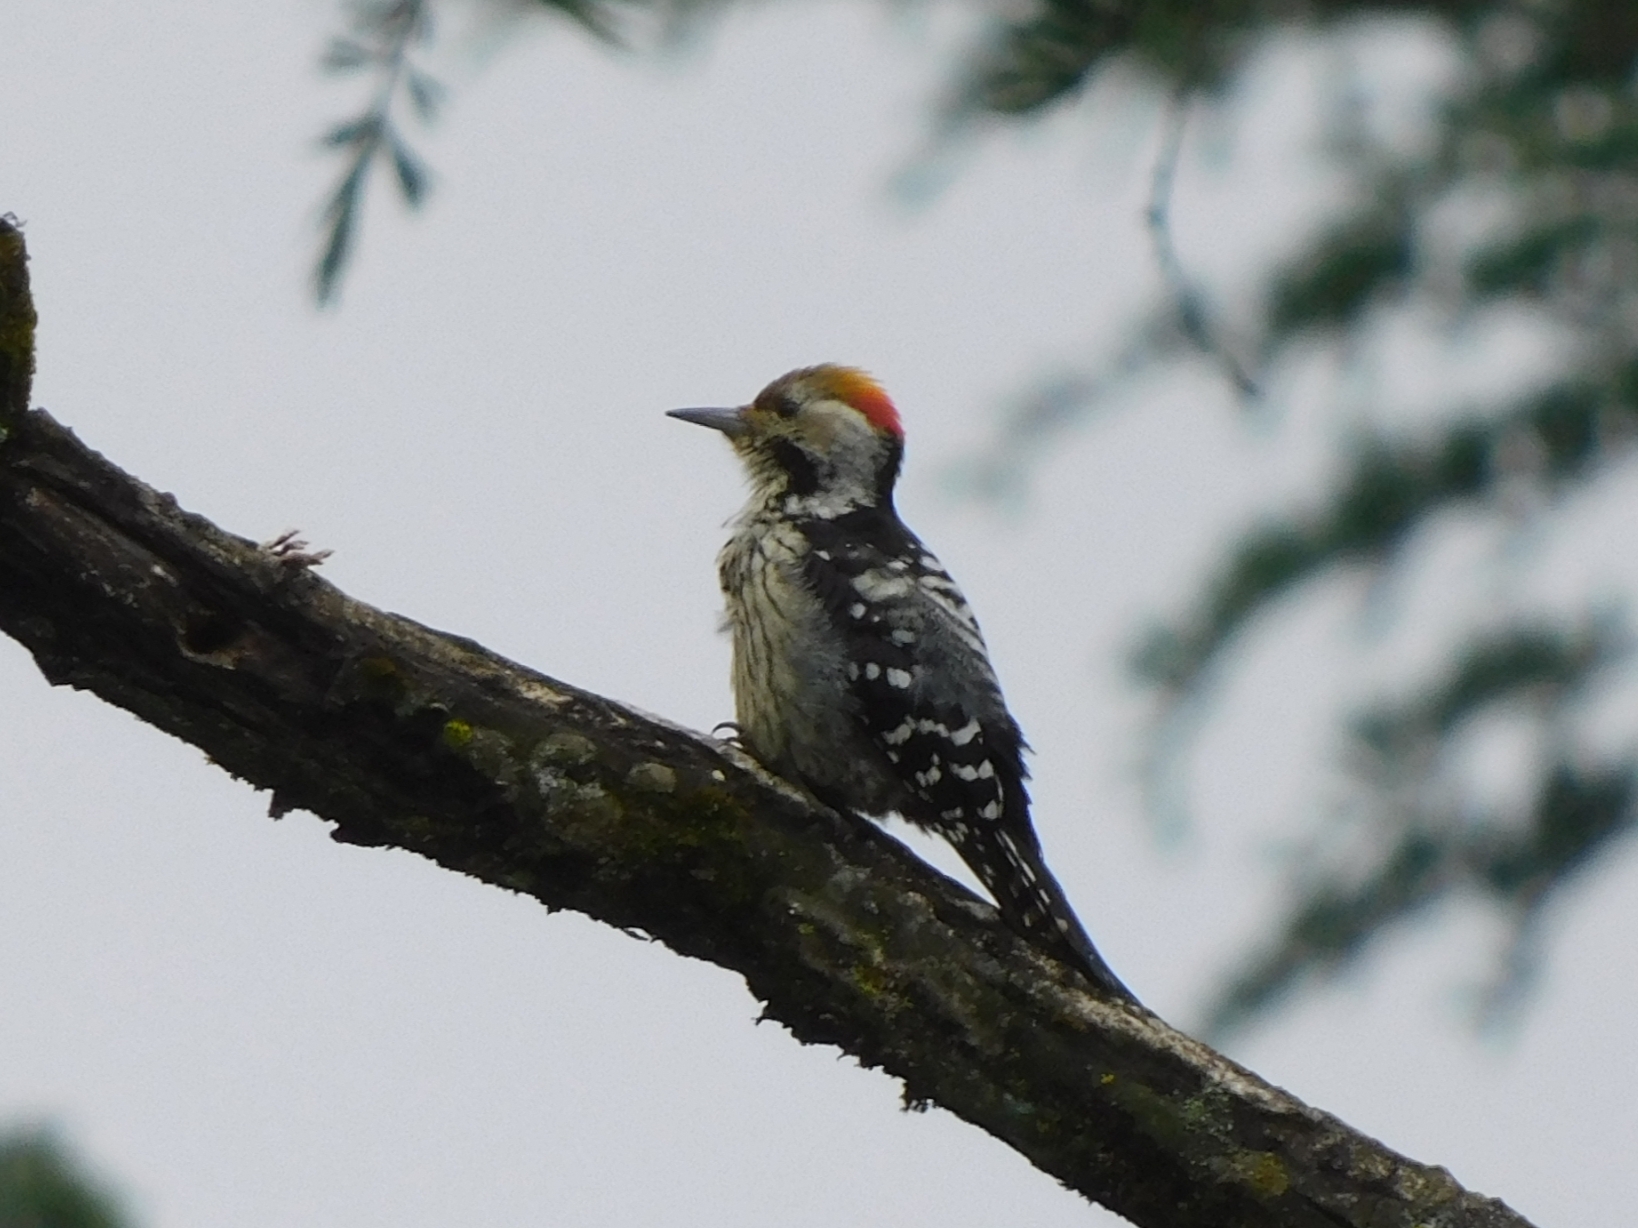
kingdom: Animalia
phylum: Chordata
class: Aves
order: Piciformes
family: Picidae
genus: Dendrocoptes
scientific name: Dendrocoptes auriceps
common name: Brown-fronted woodpecker
